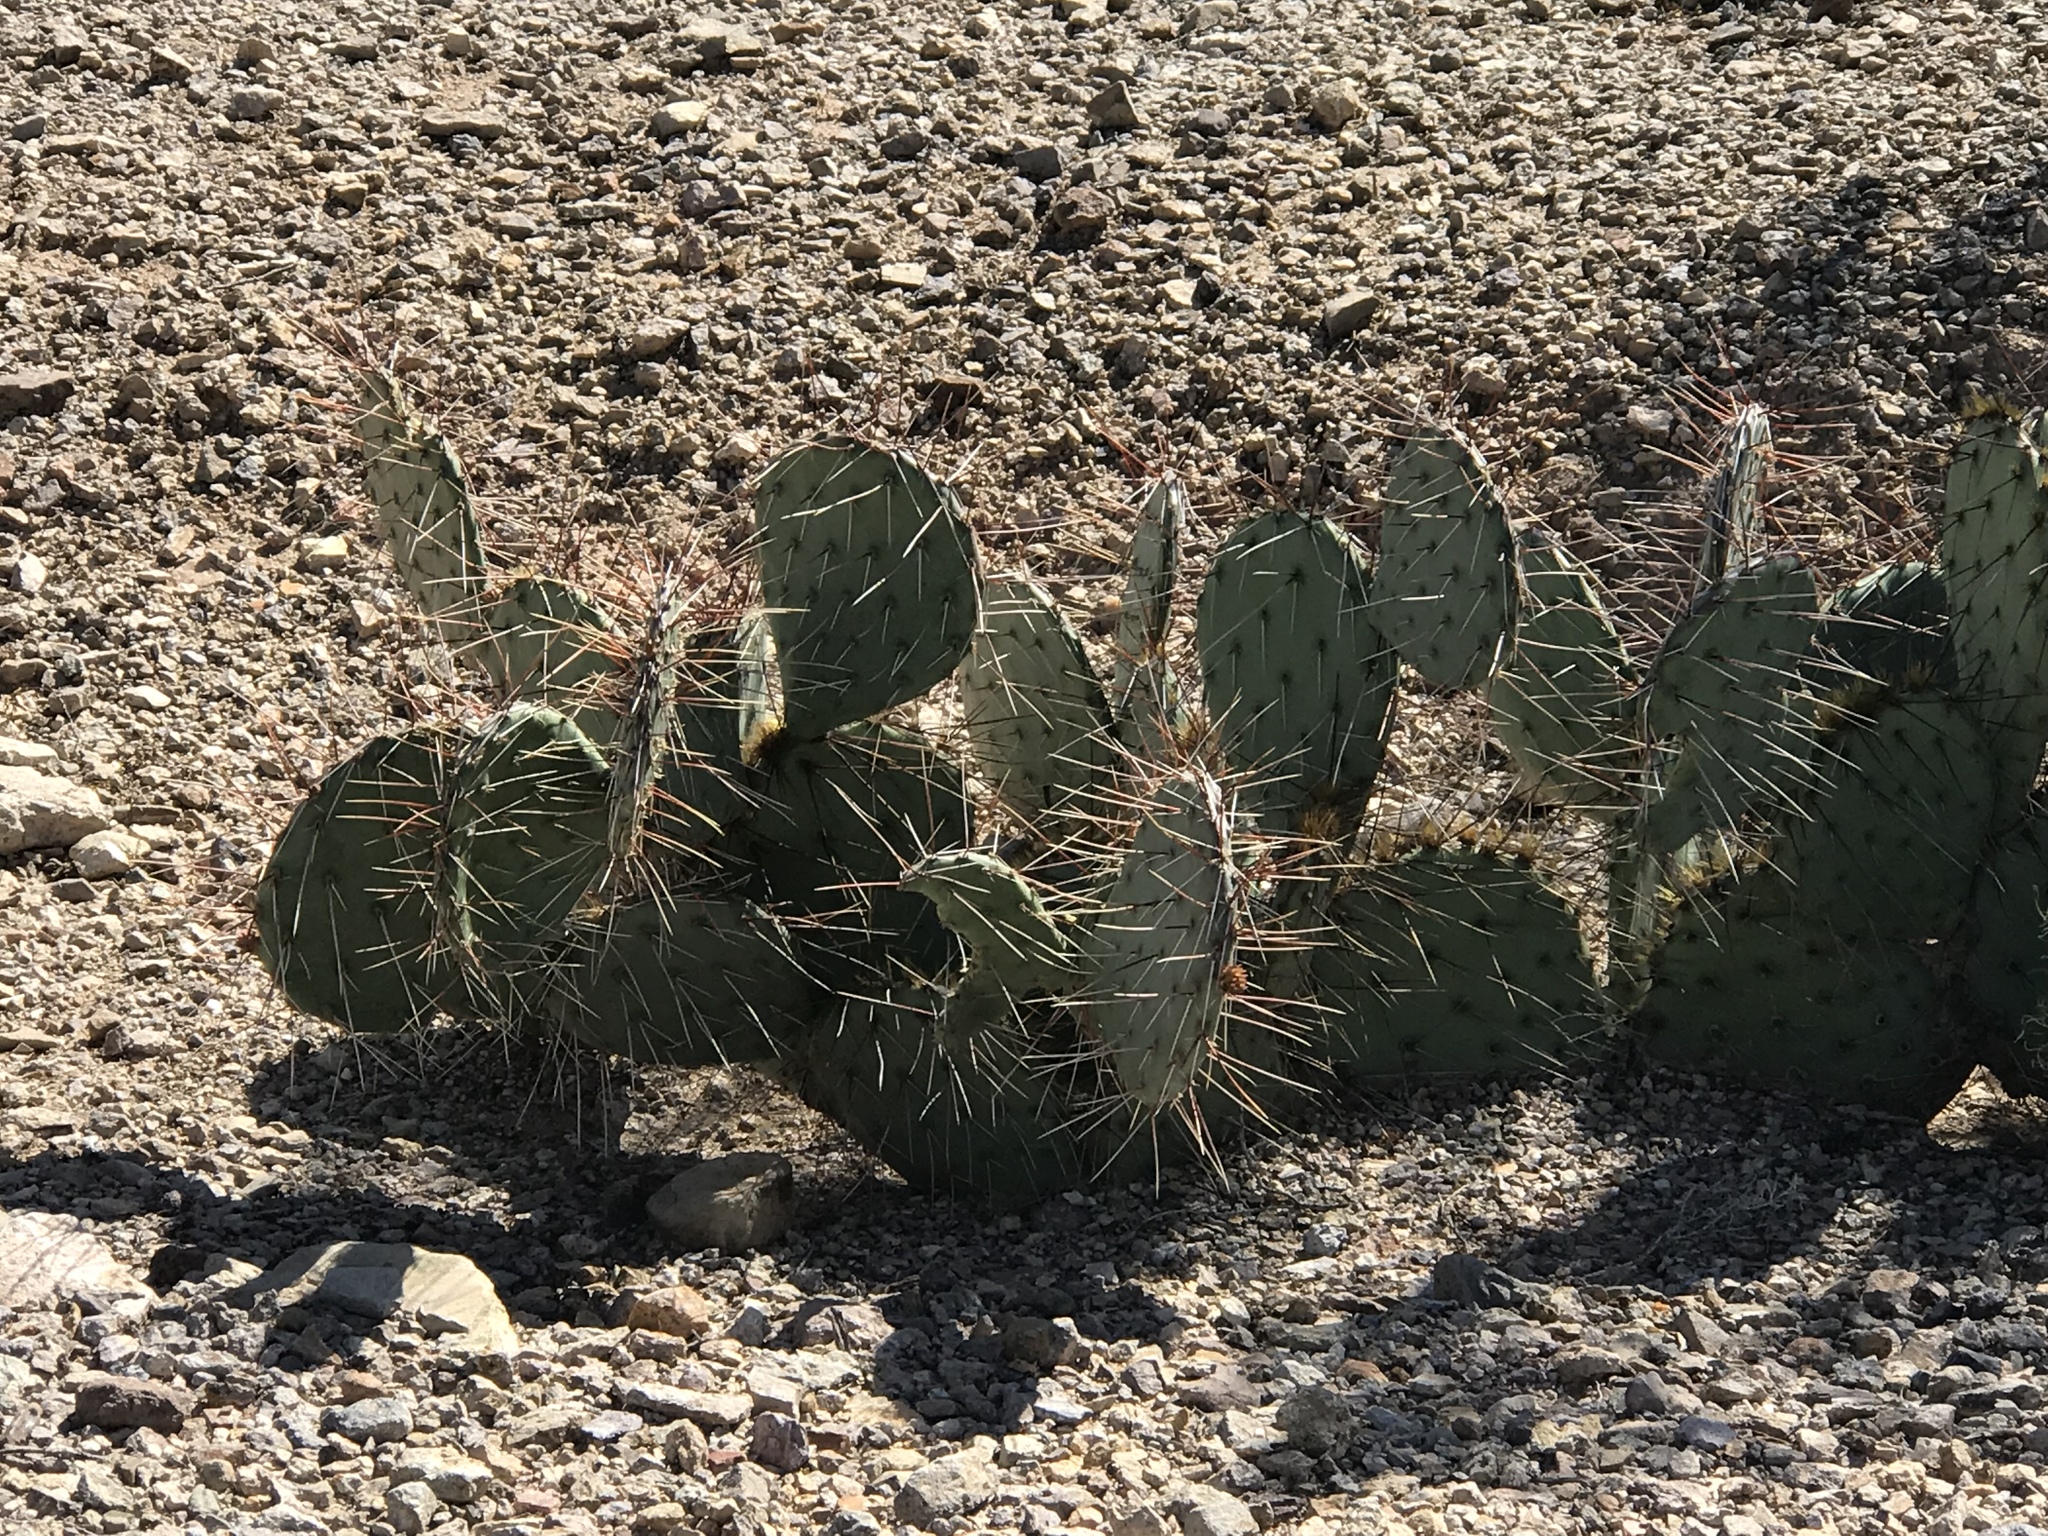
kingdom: Plantae
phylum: Tracheophyta
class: Magnoliopsida
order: Caryophyllales
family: Cactaceae
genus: Opuntia
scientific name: Opuntia phaeacantha
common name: New mexico prickly-pear
